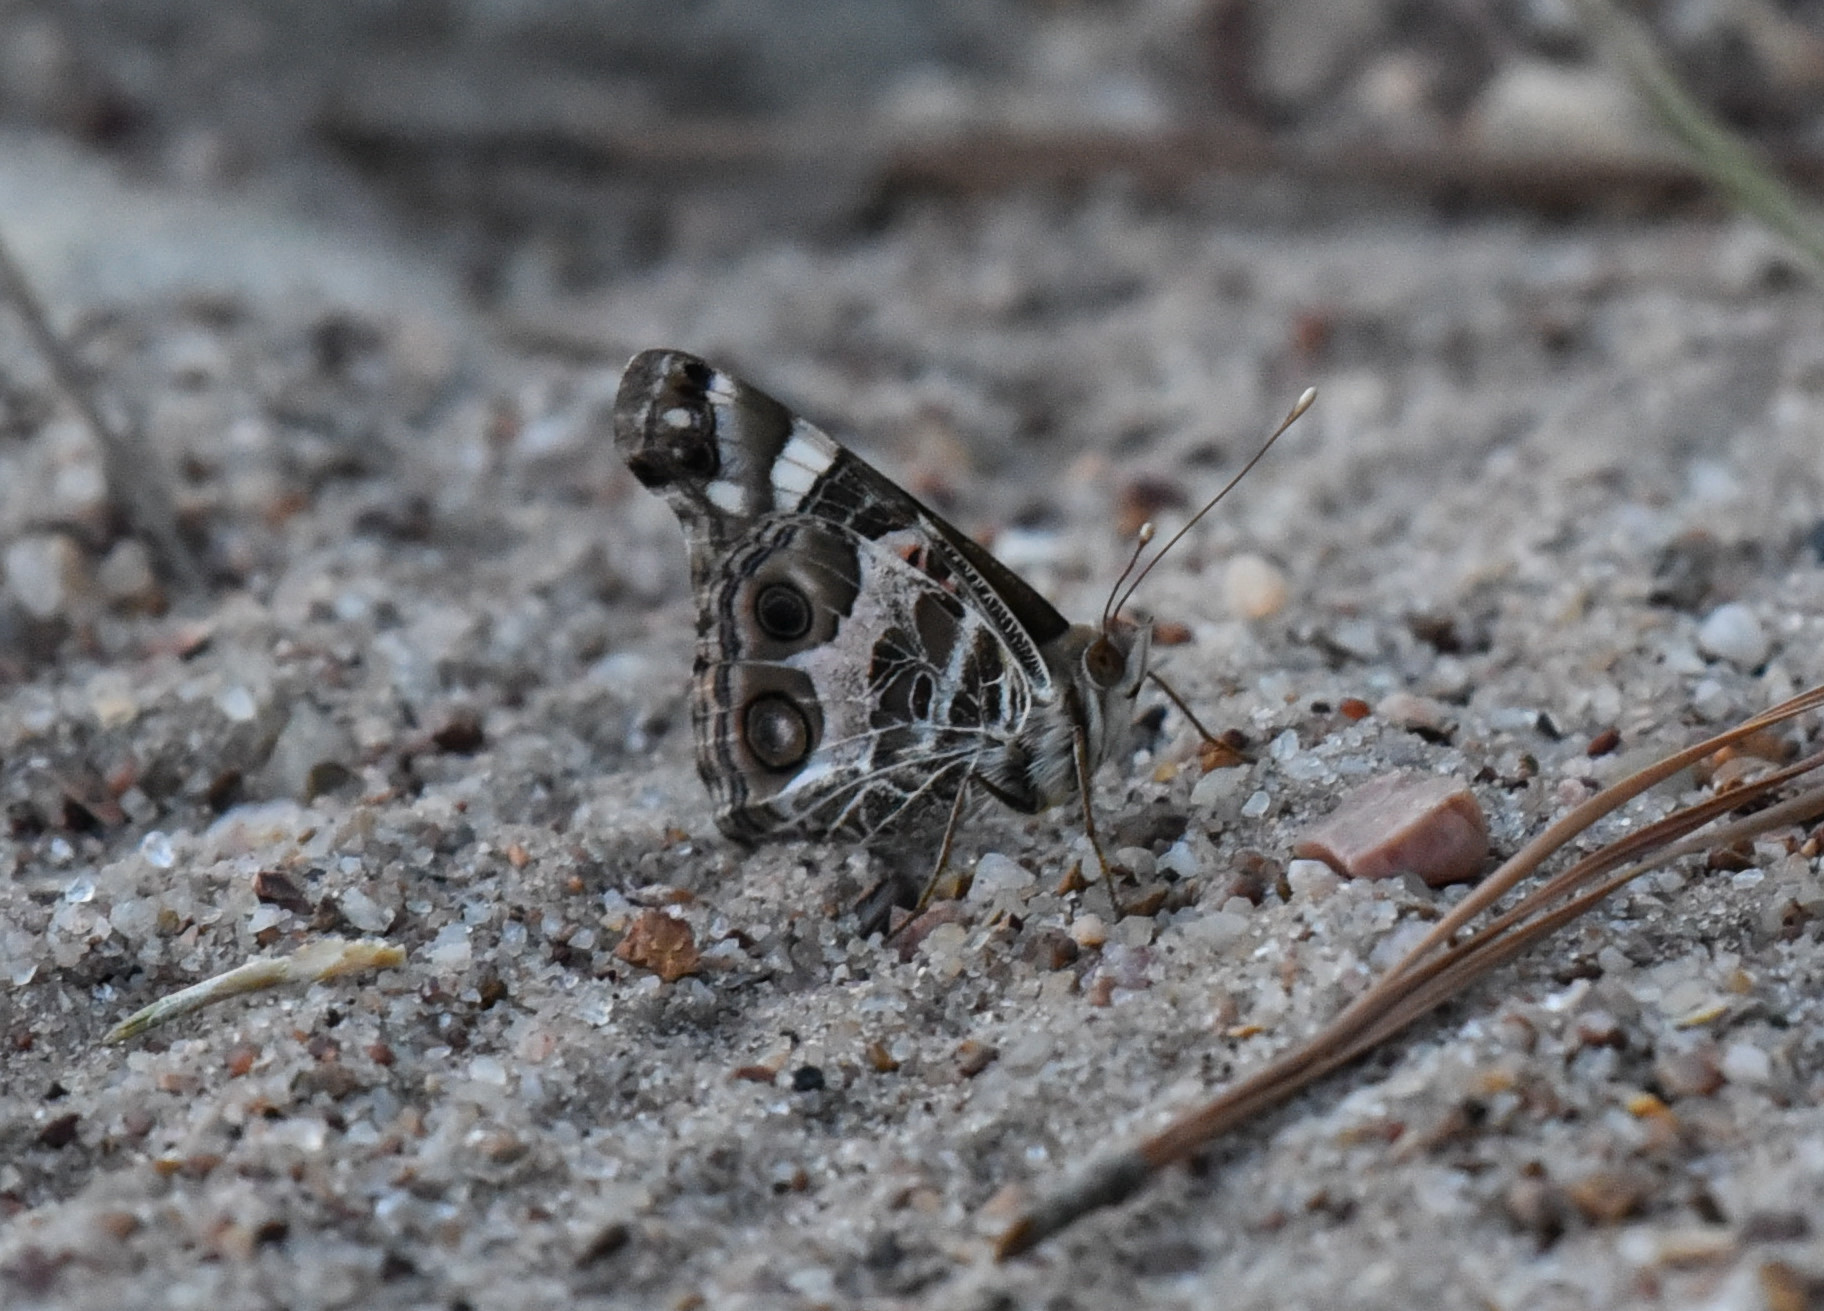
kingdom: Animalia
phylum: Arthropoda
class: Insecta
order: Lepidoptera
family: Nymphalidae
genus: Vanessa
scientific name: Vanessa virginiensis
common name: American lady
